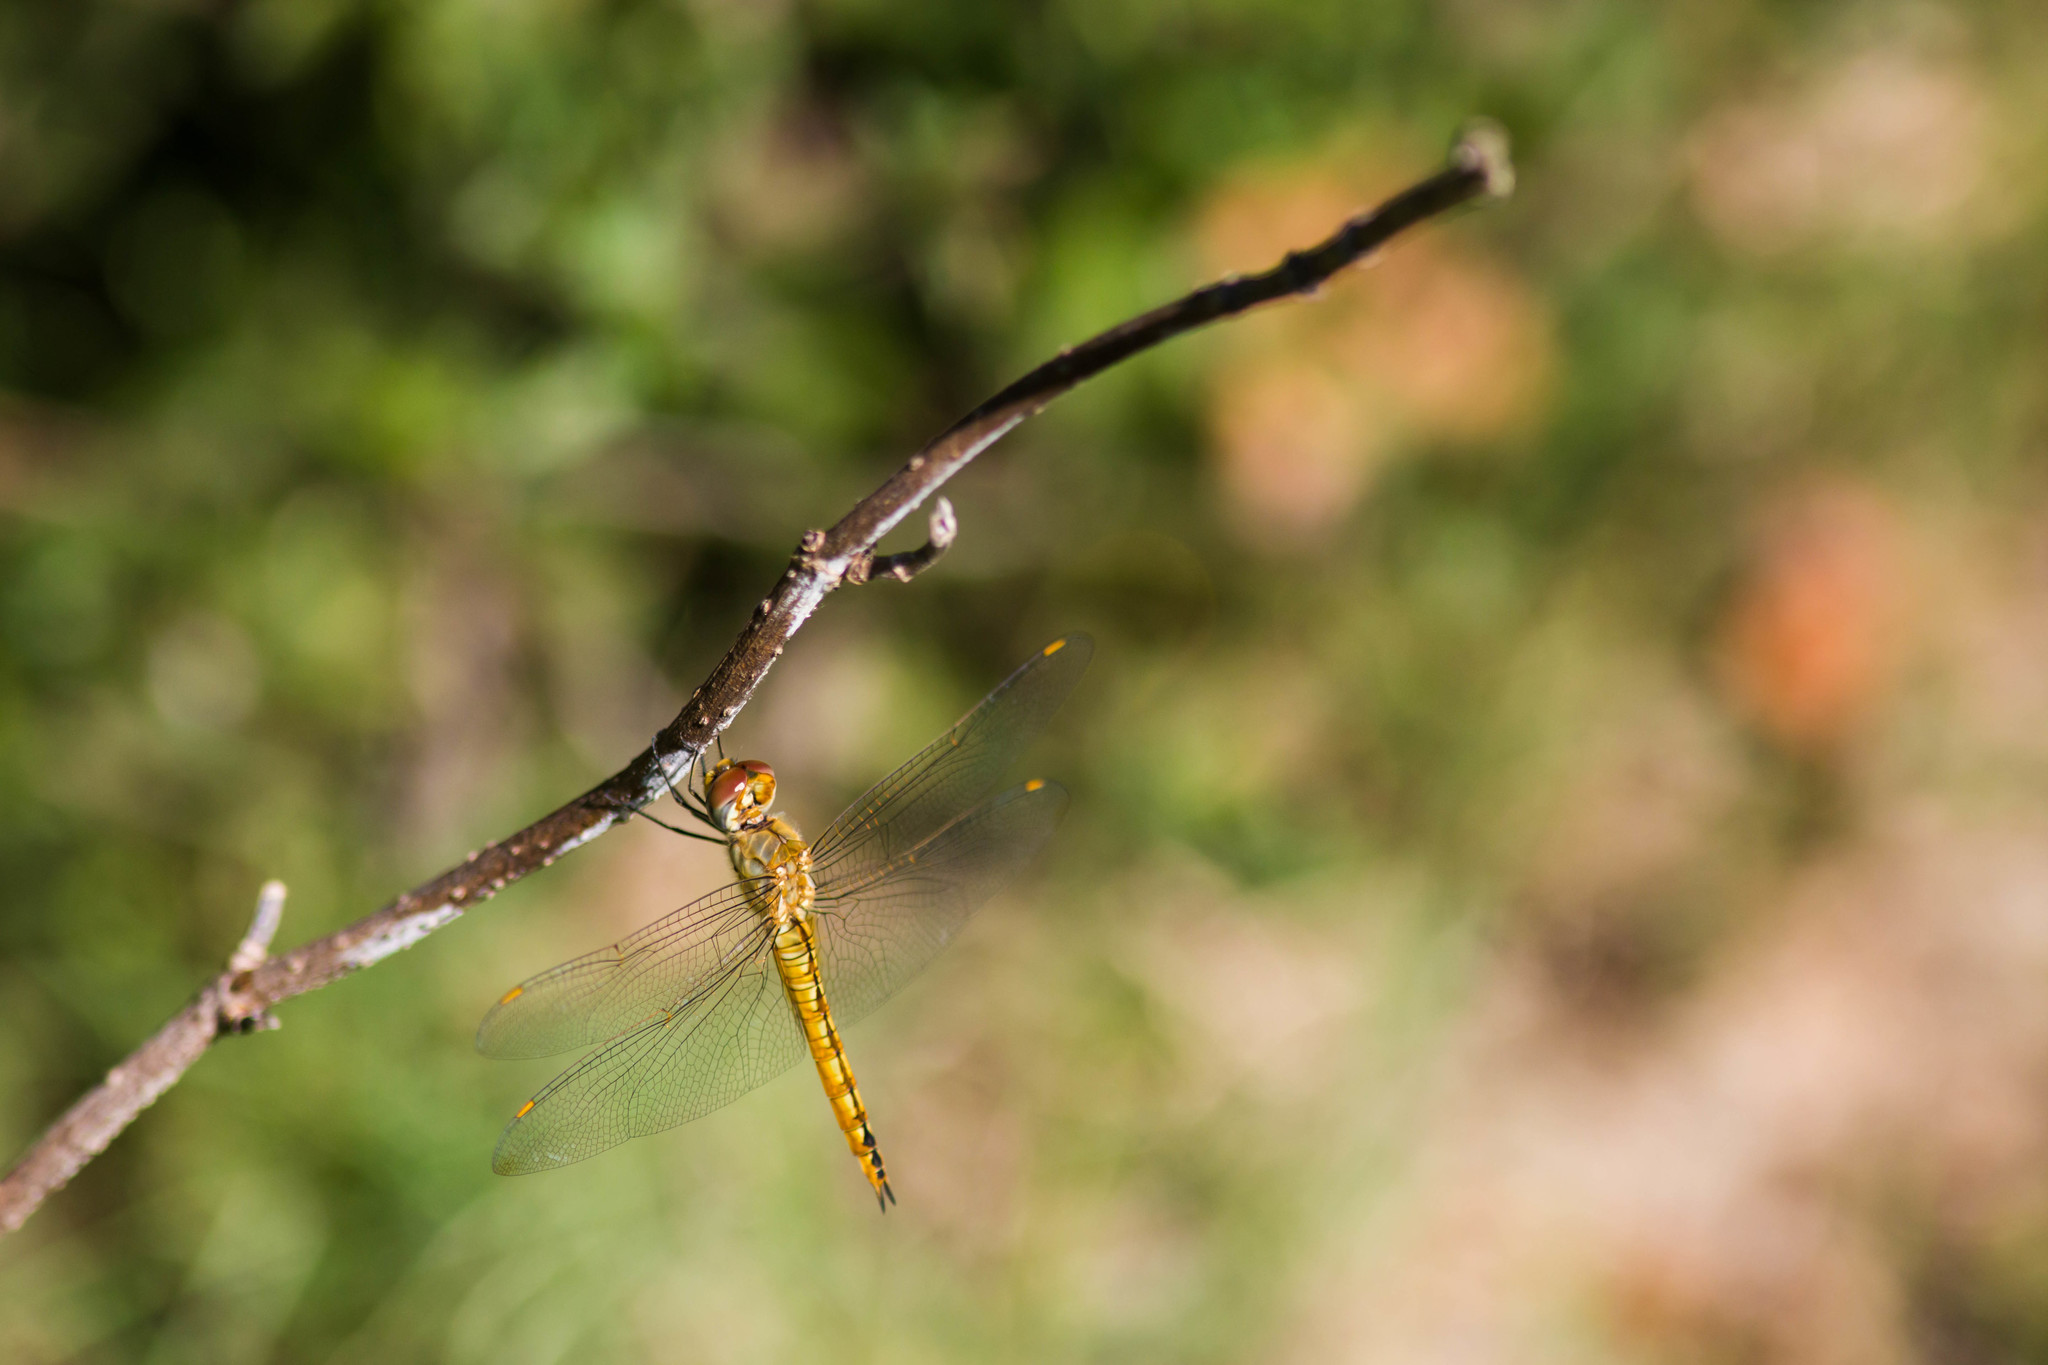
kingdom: Animalia
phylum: Arthropoda
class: Insecta
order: Odonata
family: Libellulidae
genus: Pantala
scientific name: Pantala flavescens
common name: Wandering glider
